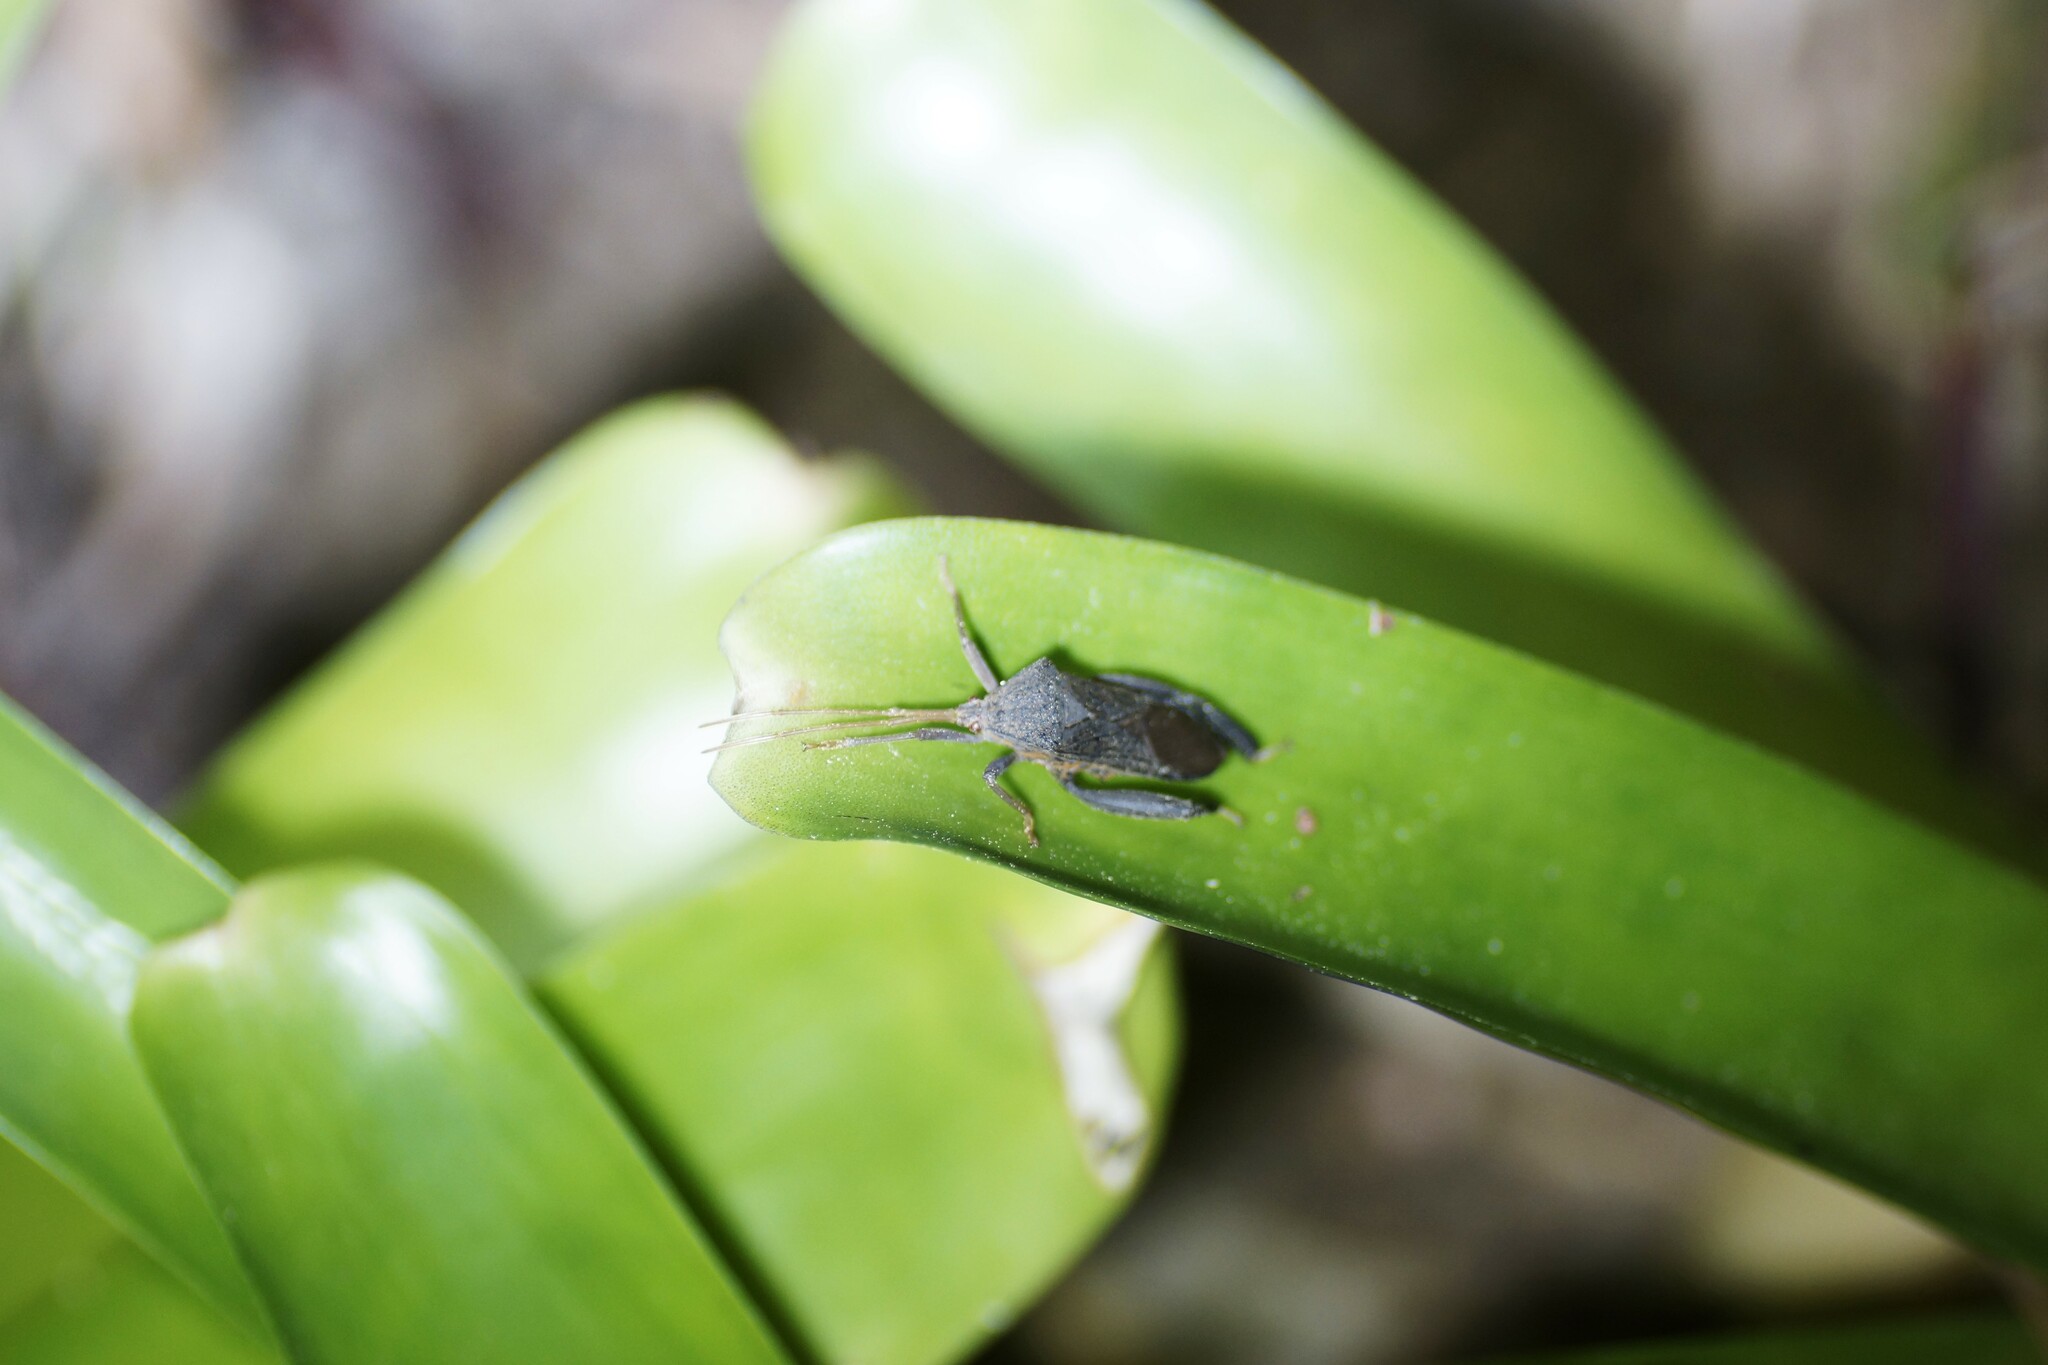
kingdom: Animalia
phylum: Arthropoda
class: Insecta
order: Hemiptera
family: Coreidae
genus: Pternistria
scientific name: Pternistria bispina
